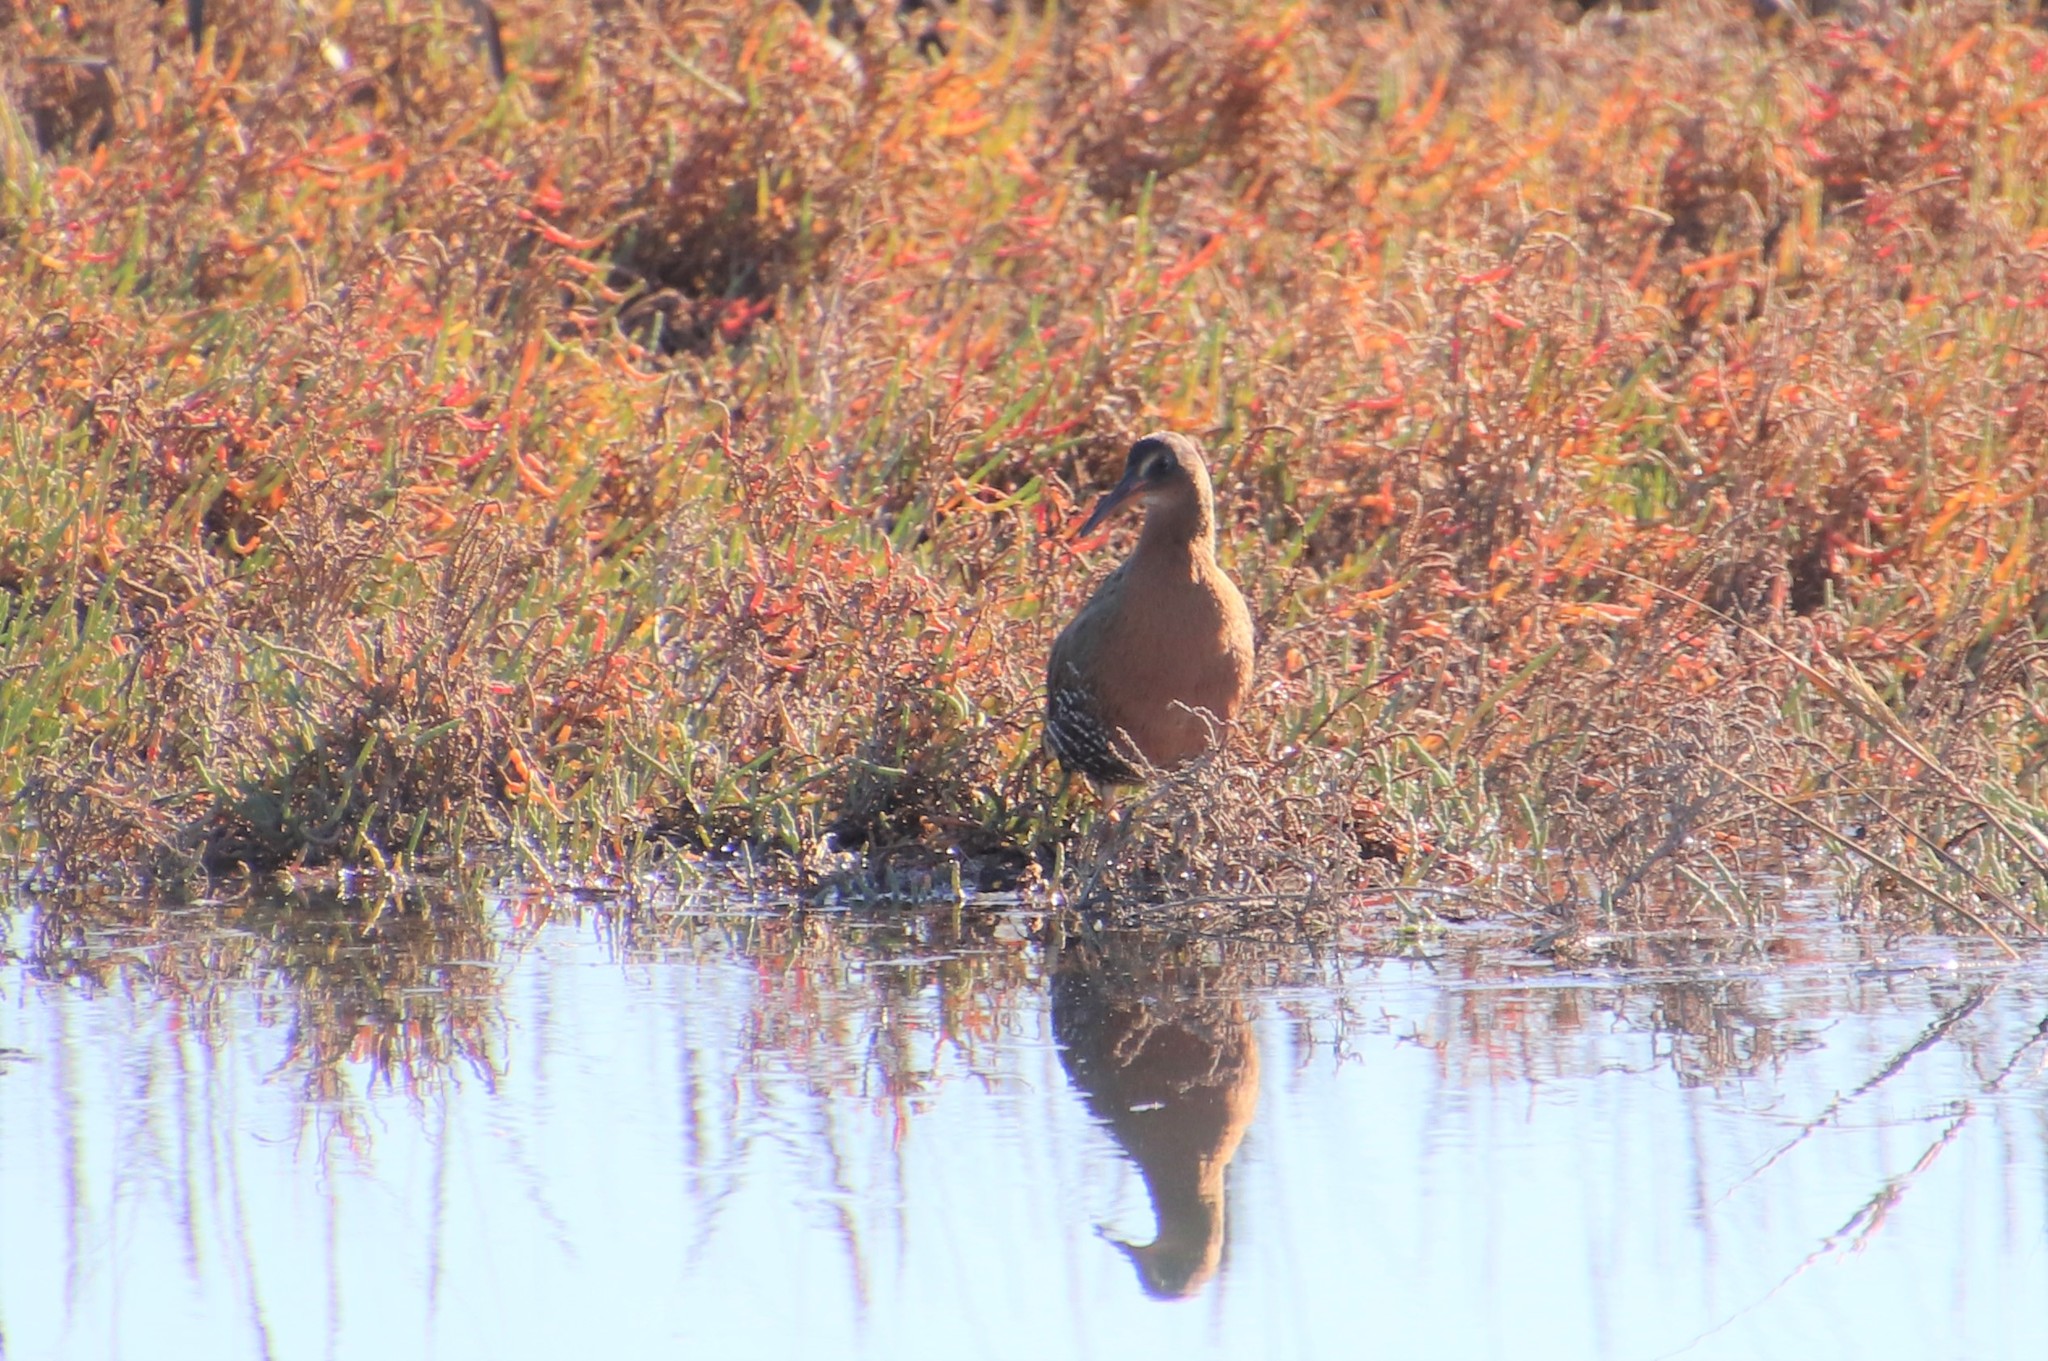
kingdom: Animalia
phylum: Chordata
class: Aves
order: Gruiformes
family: Rallidae
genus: Rallus
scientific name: Rallus obsoletus
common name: Ridgway's rail
